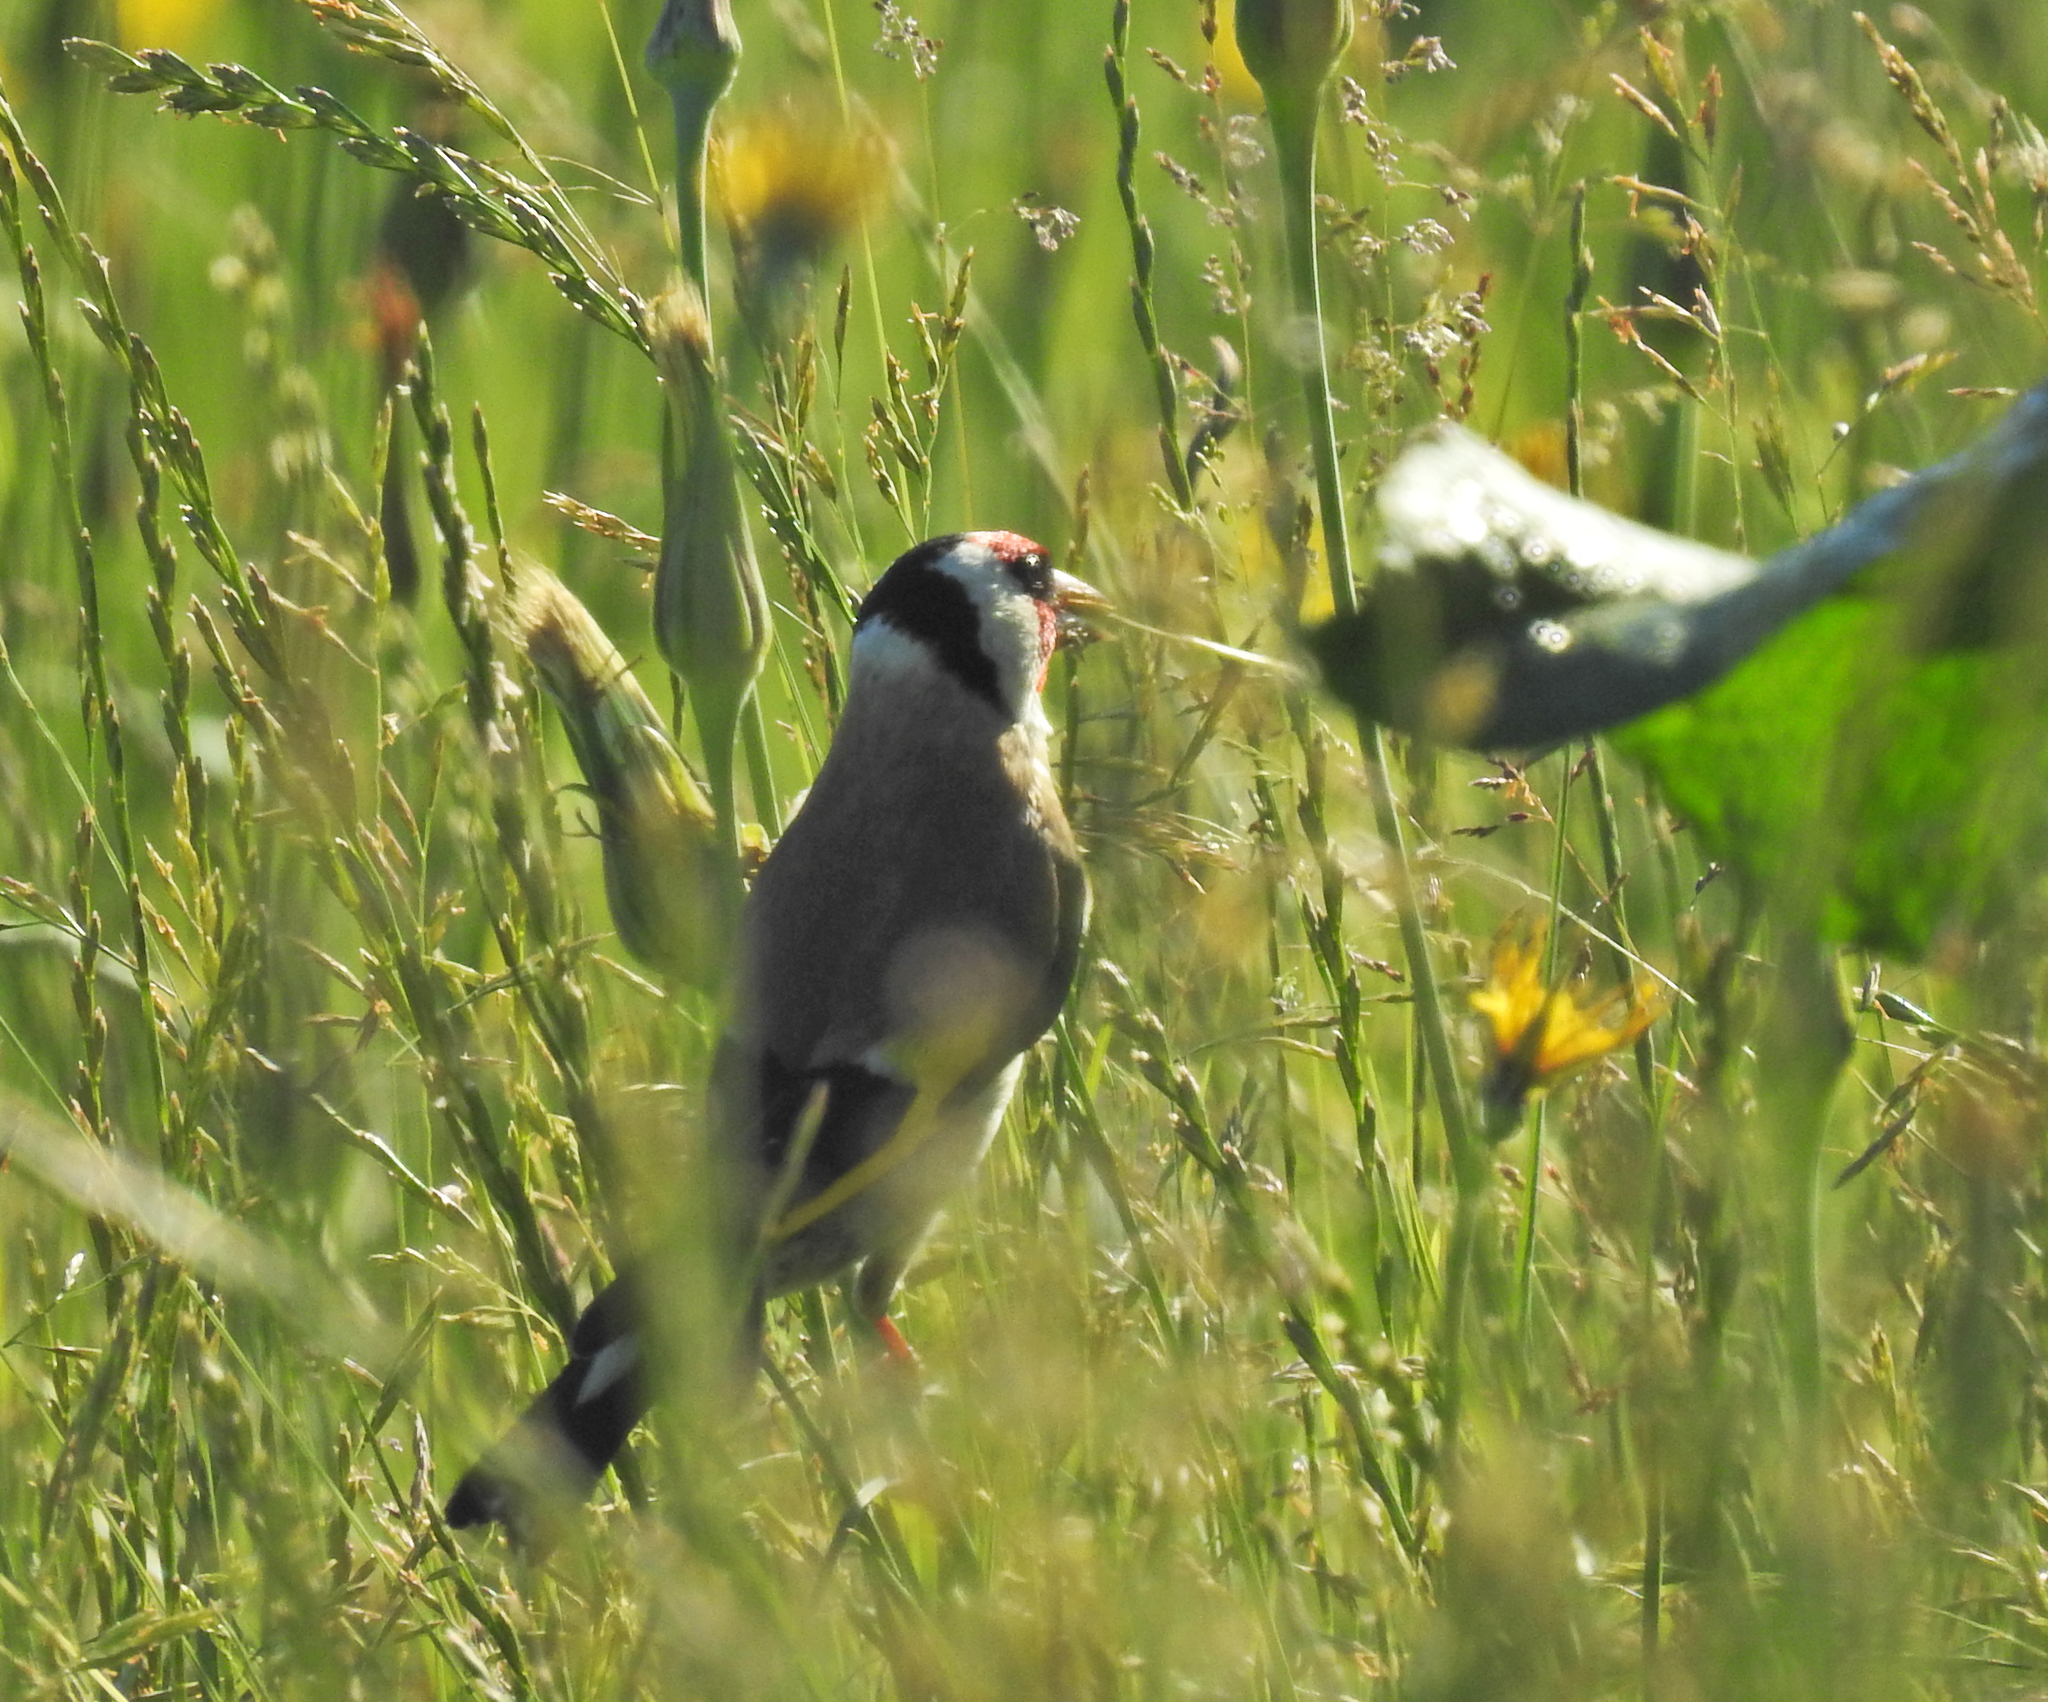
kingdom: Animalia
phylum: Chordata
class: Aves
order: Passeriformes
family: Fringillidae
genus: Carduelis
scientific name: Carduelis carduelis
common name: European goldfinch
